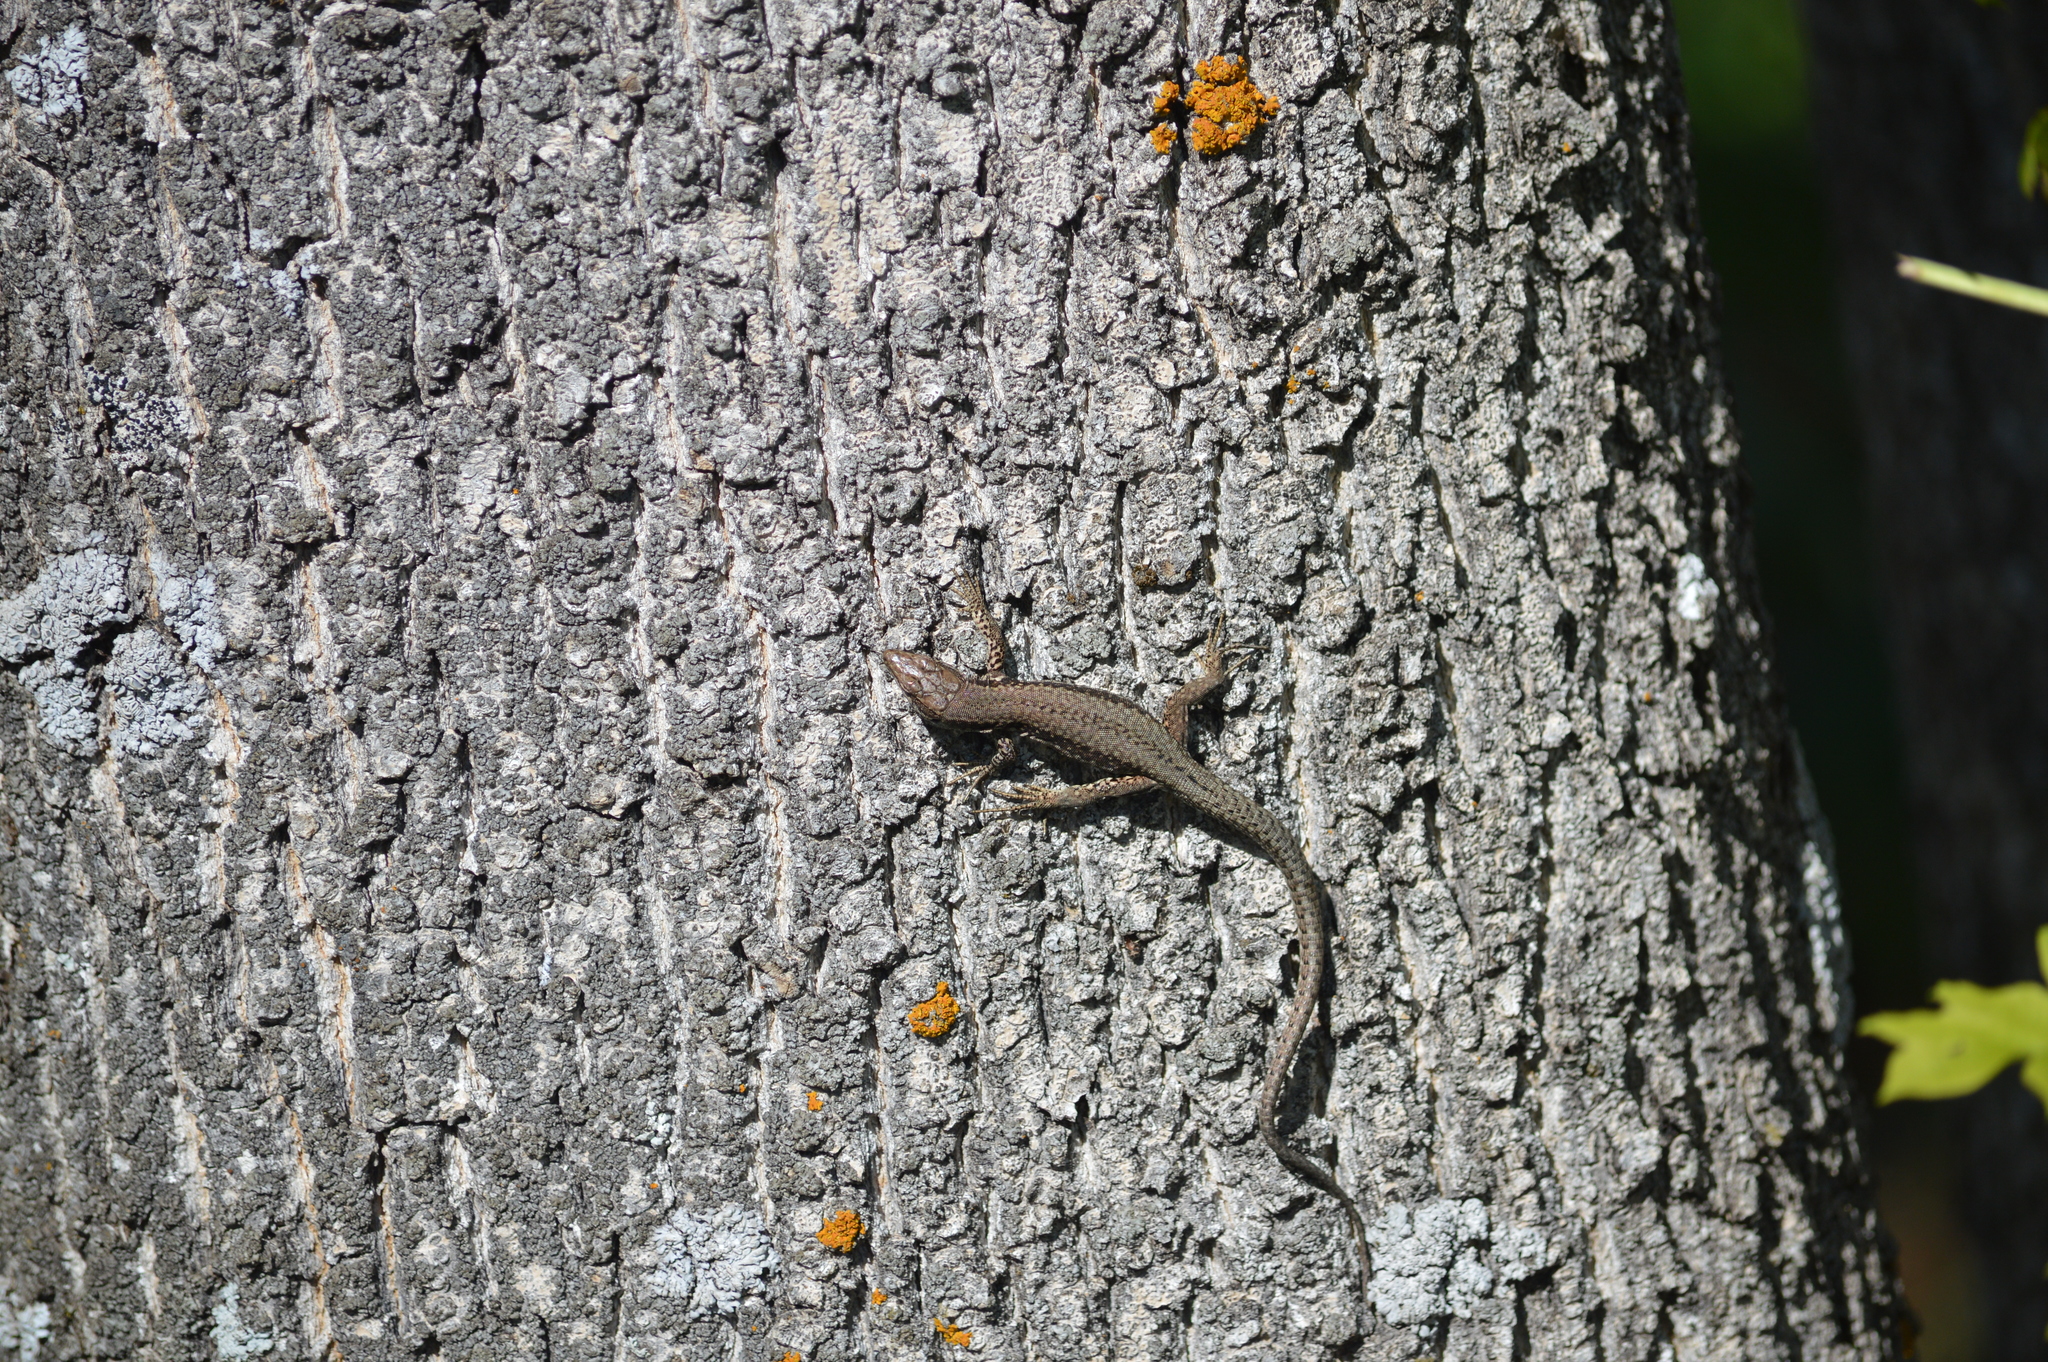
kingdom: Animalia
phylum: Chordata
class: Squamata
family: Lacertidae
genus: Podarcis
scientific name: Podarcis muralis
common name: Common wall lizard
